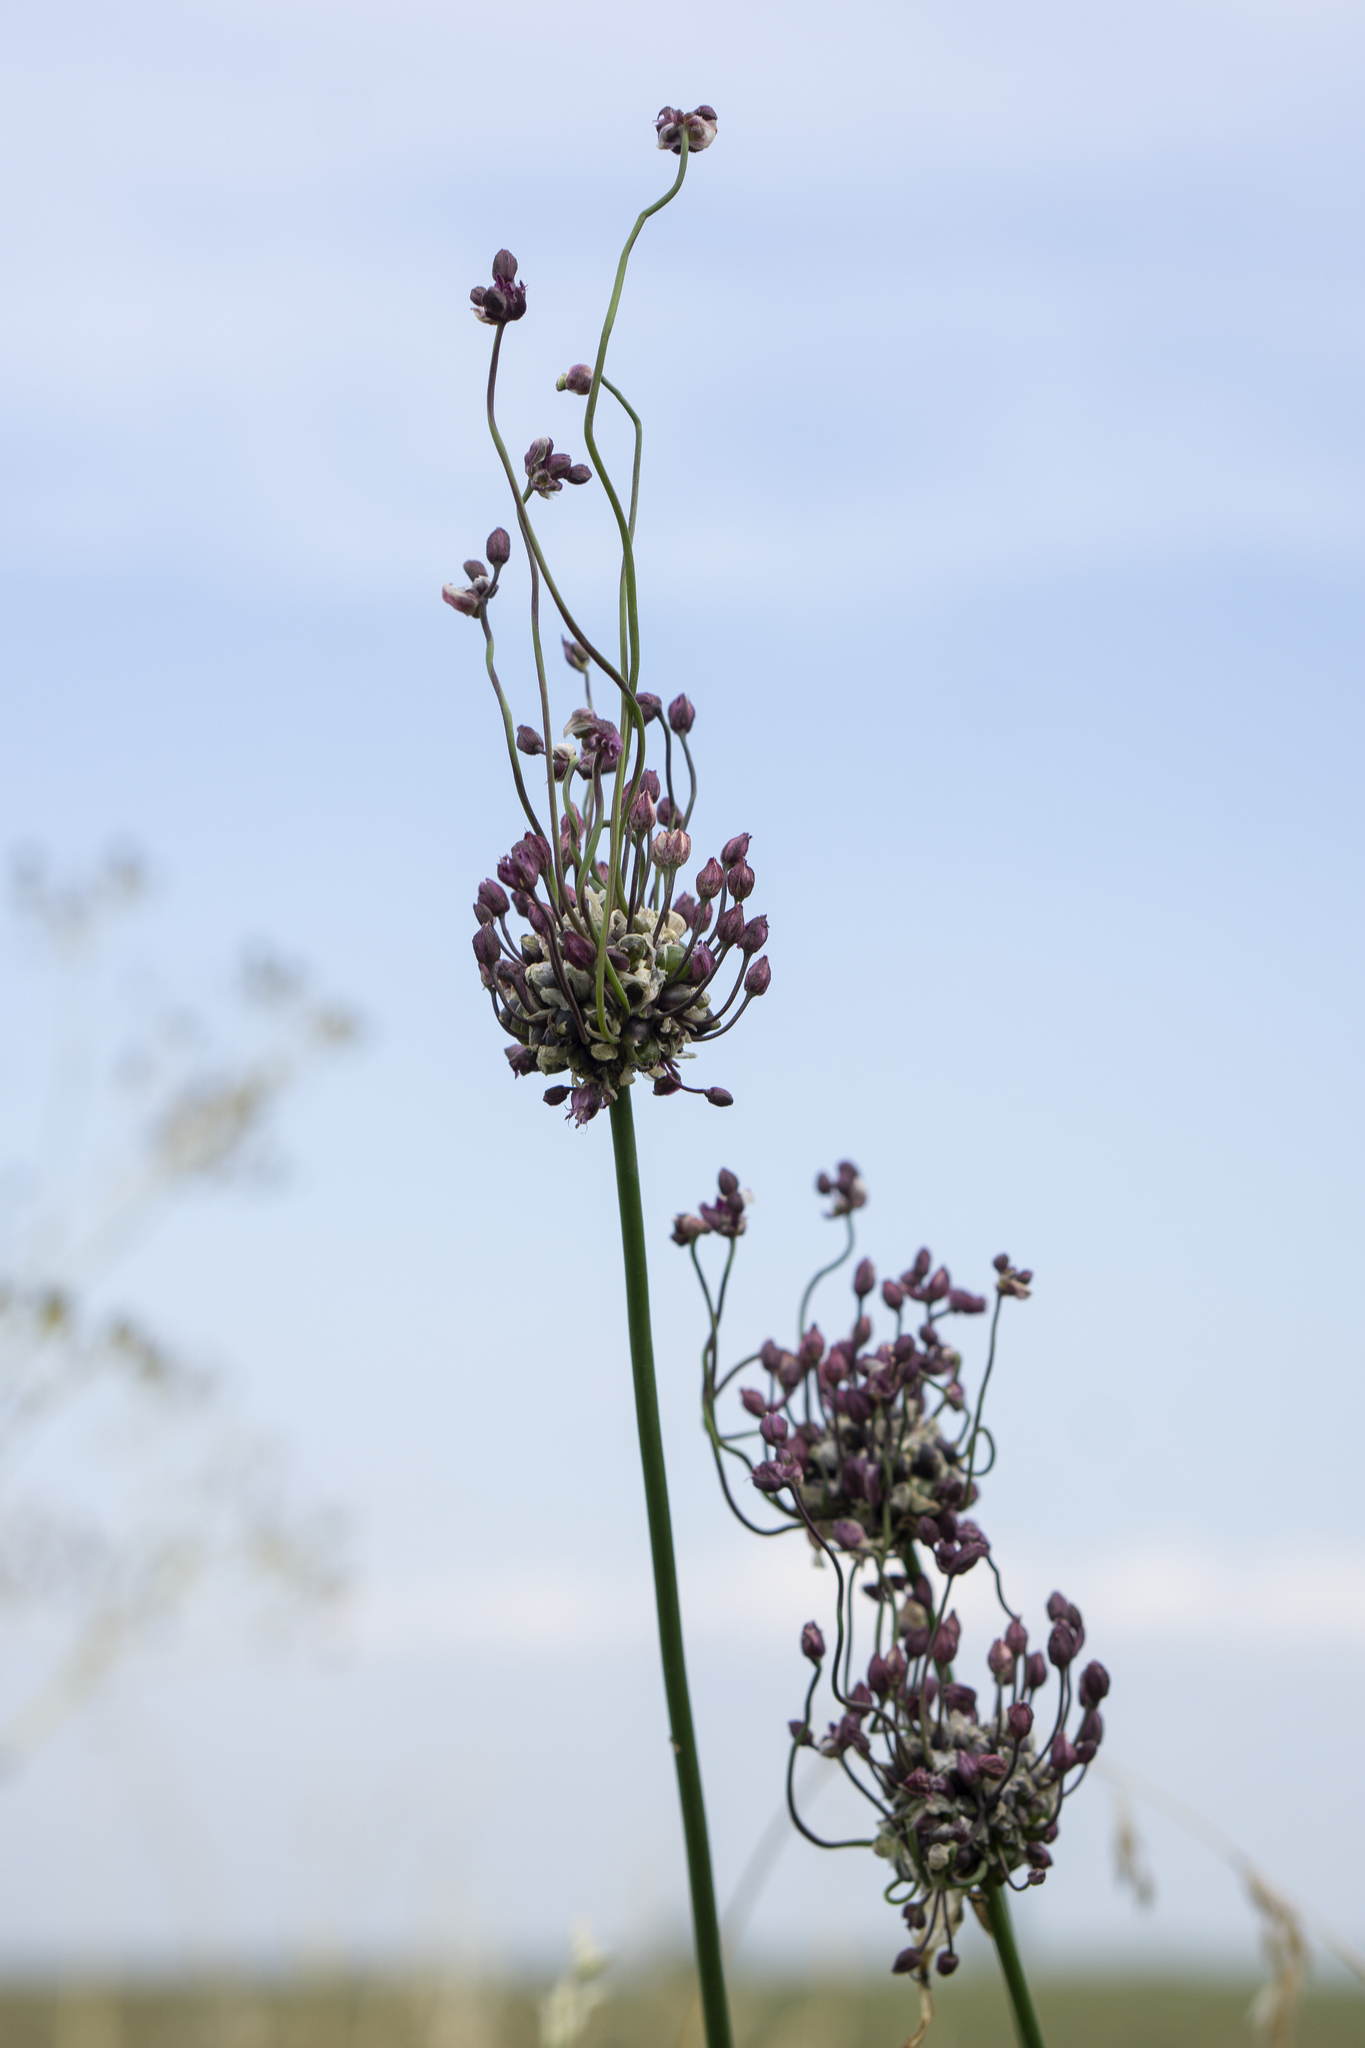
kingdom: Plantae
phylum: Tracheophyta
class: Liliopsida
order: Asparagales
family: Amaryllidaceae
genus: Allium
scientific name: Allium scorodoprasum
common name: Sand leek
